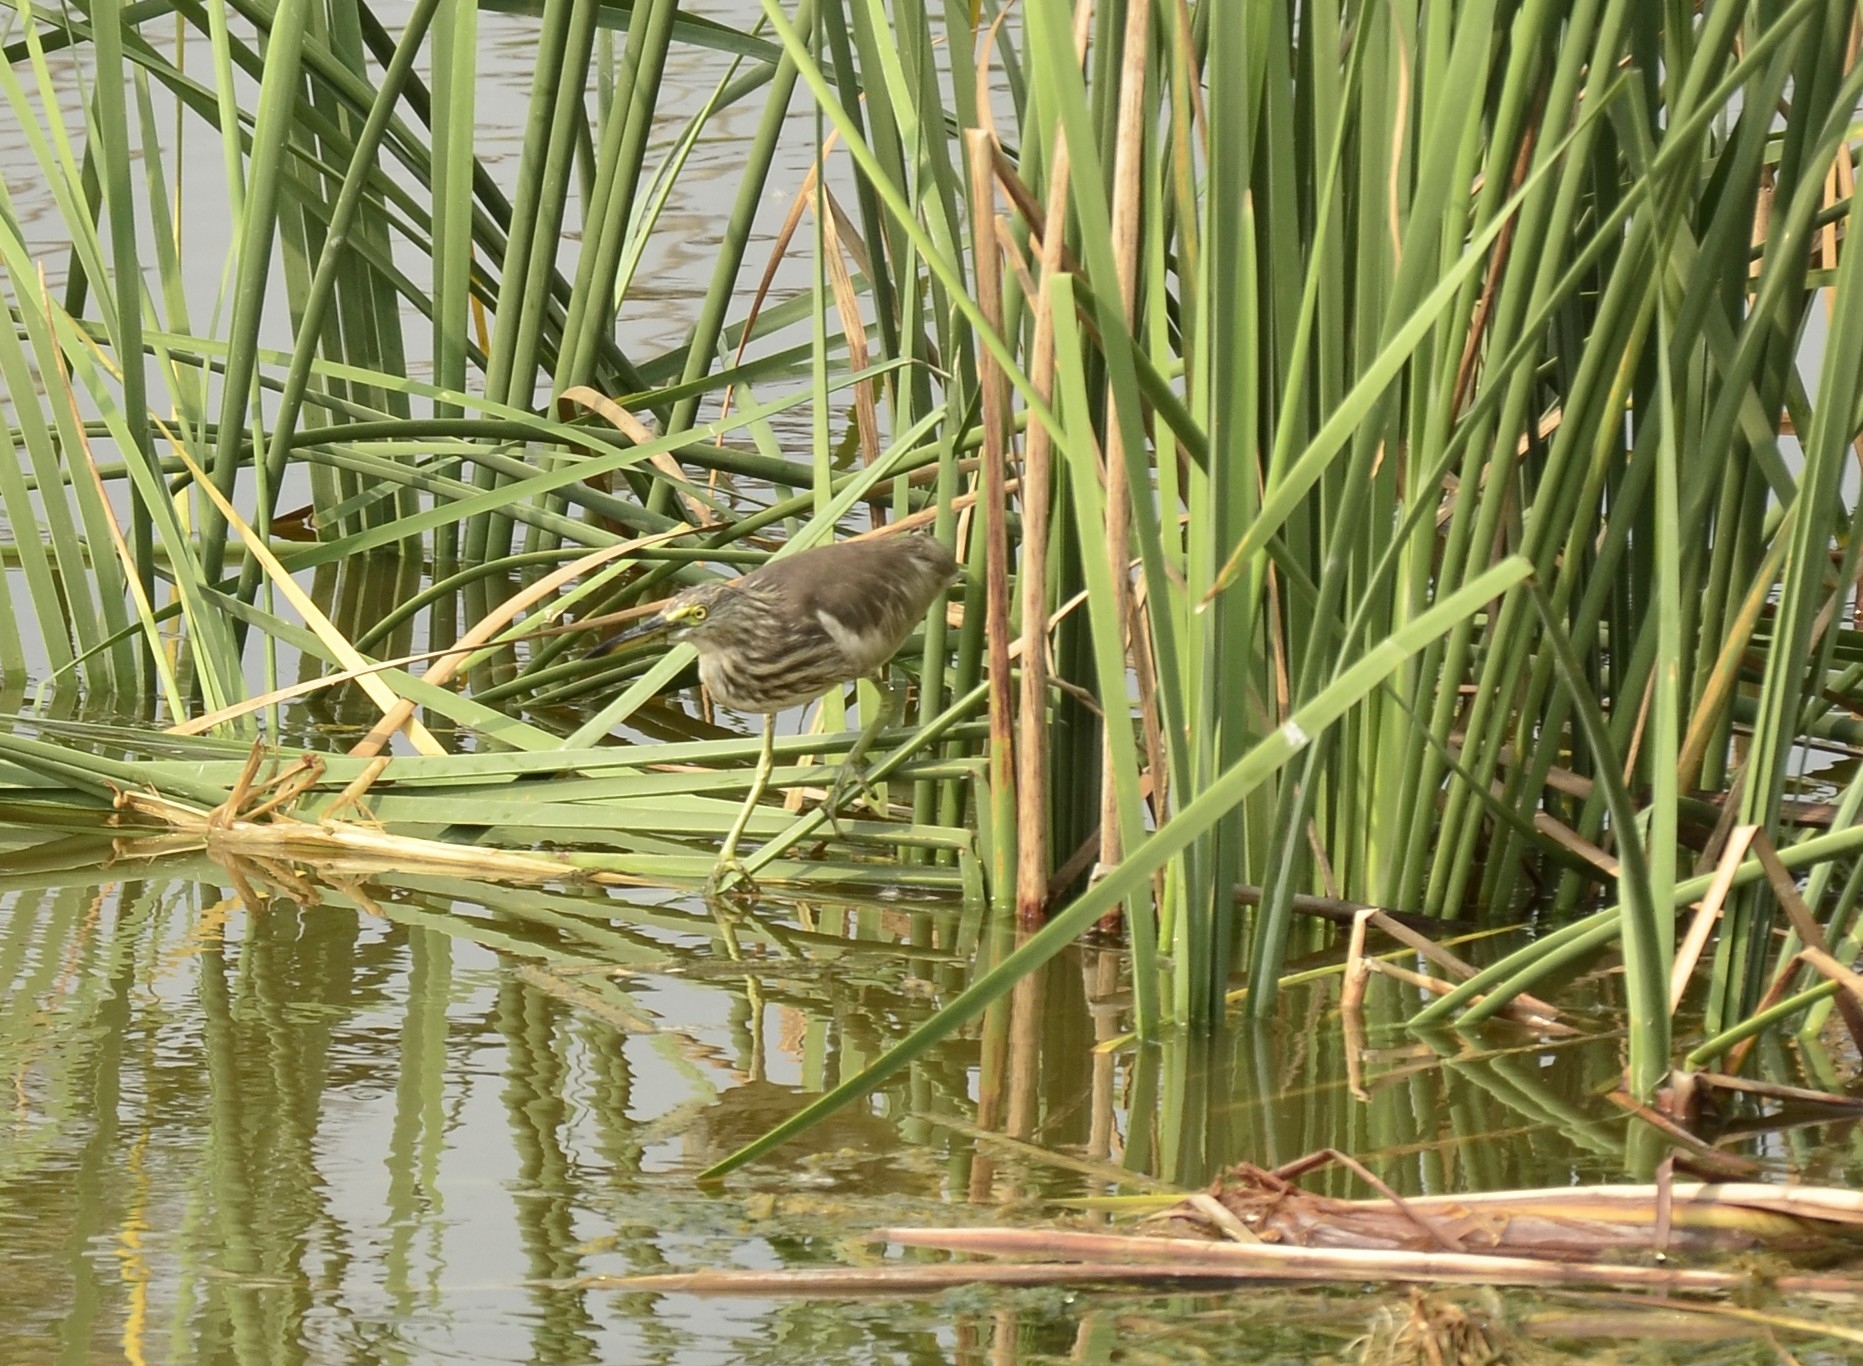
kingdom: Animalia
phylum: Chordata
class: Aves
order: Pelecaniformes
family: Ardeidae
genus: Ardeola
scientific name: Ardeola grayii
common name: Indian pond heron
